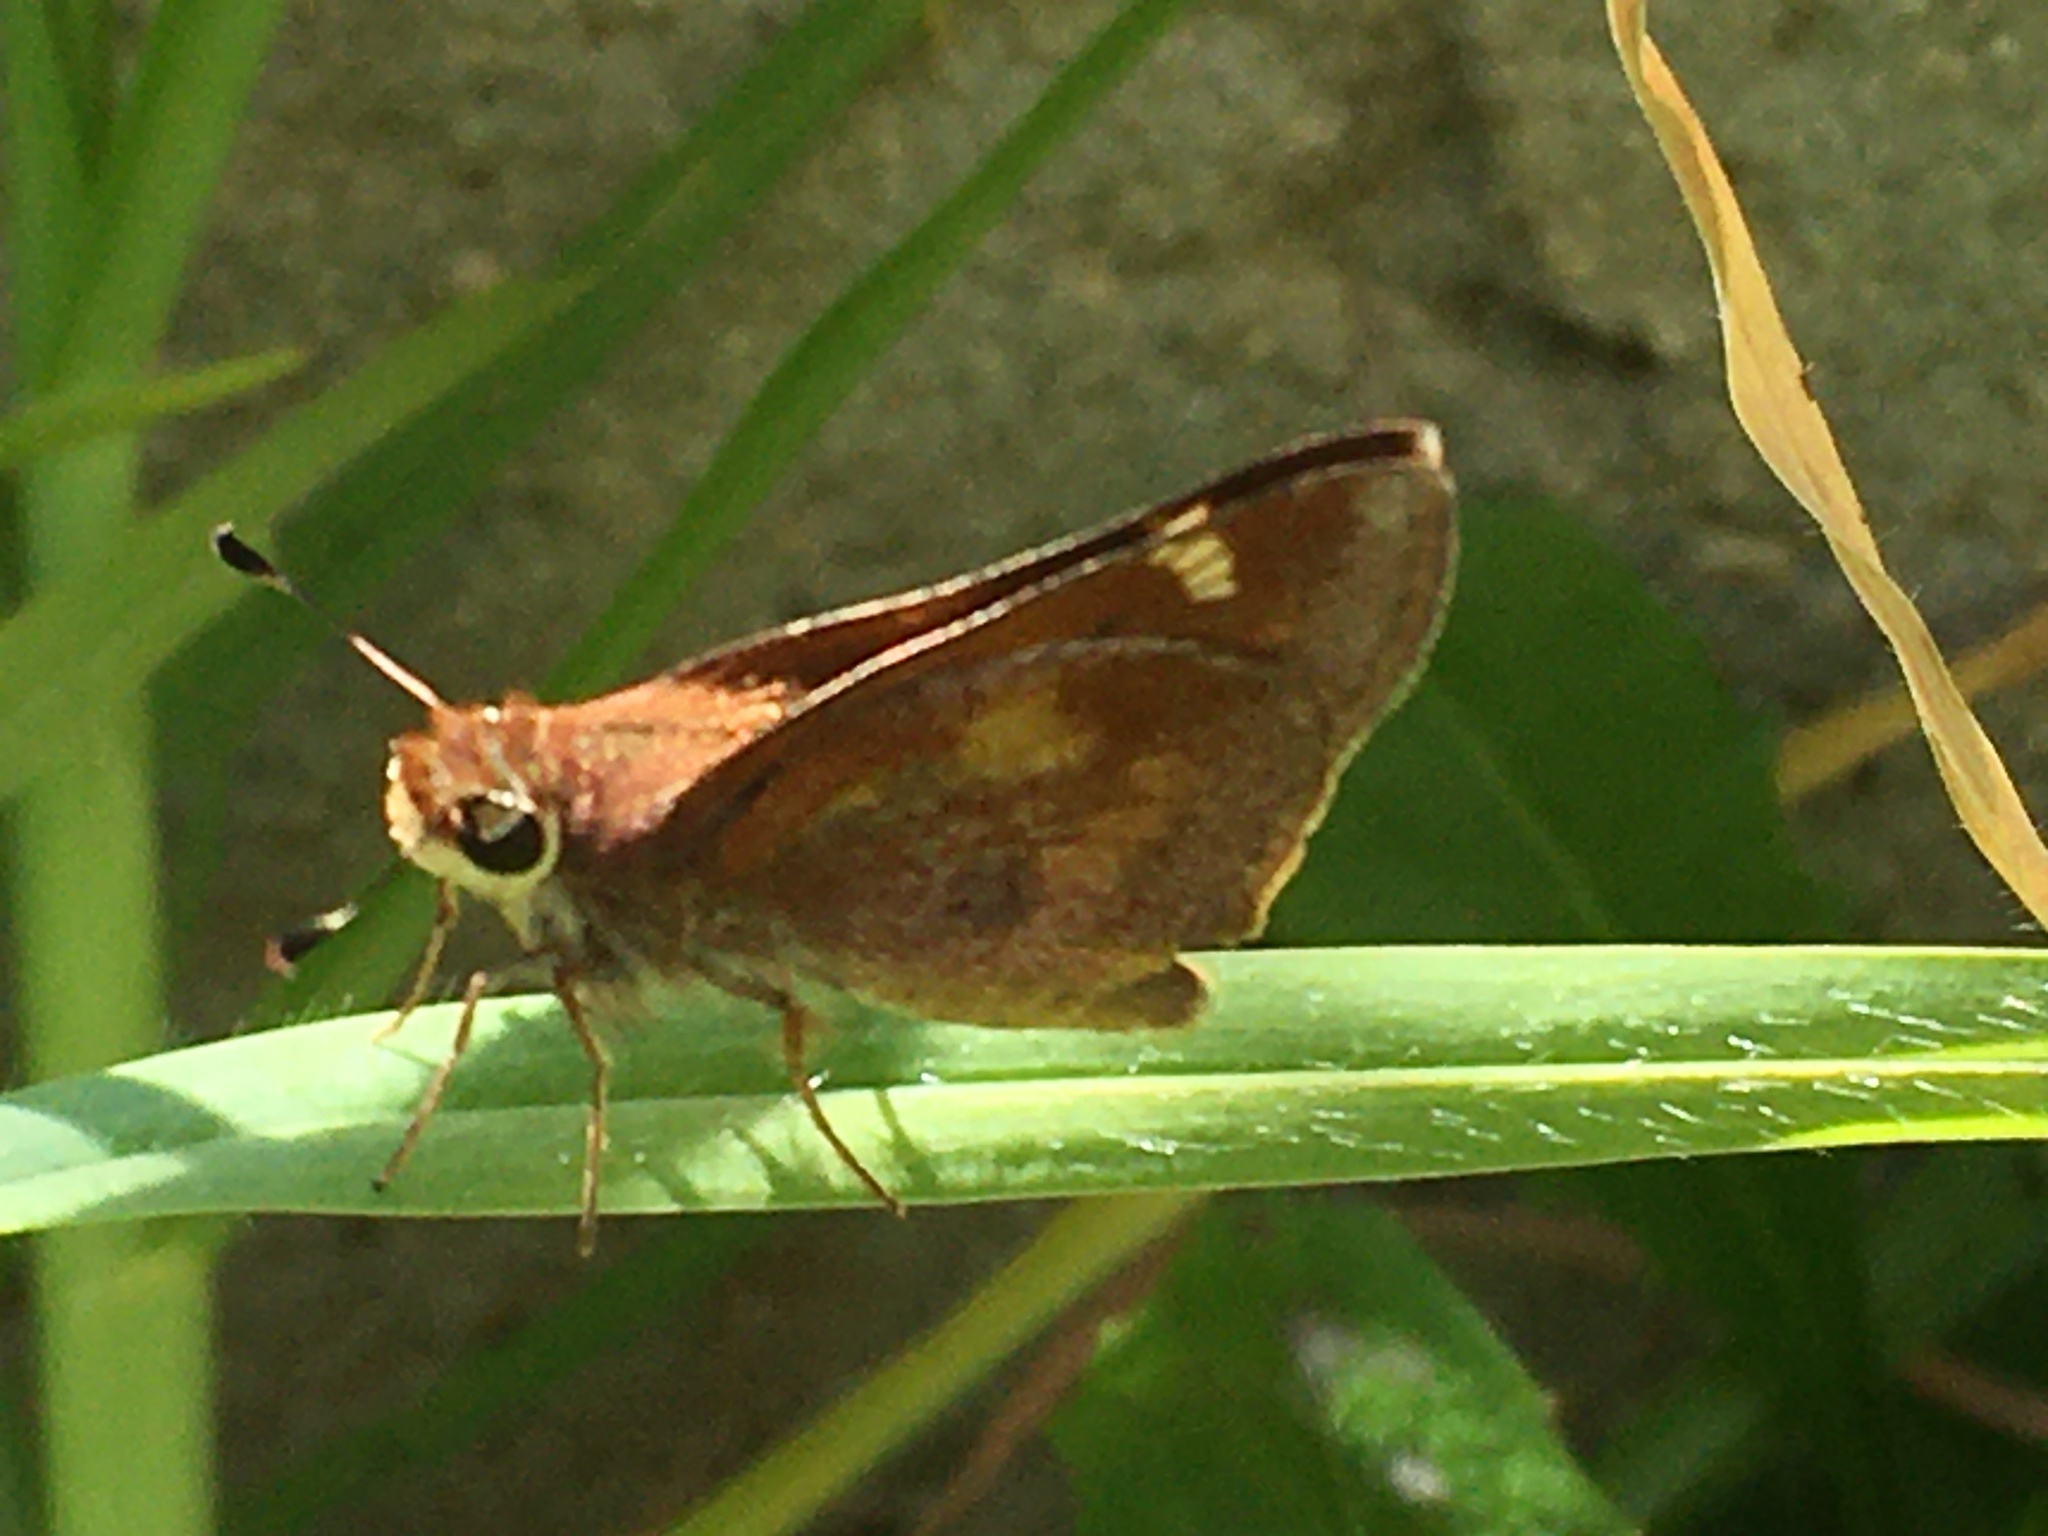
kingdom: Animalia
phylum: Arthropoda
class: Insecta
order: Lepidoptera
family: Hesperiidae
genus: Lon
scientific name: Lon melane
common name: Umber skipper
